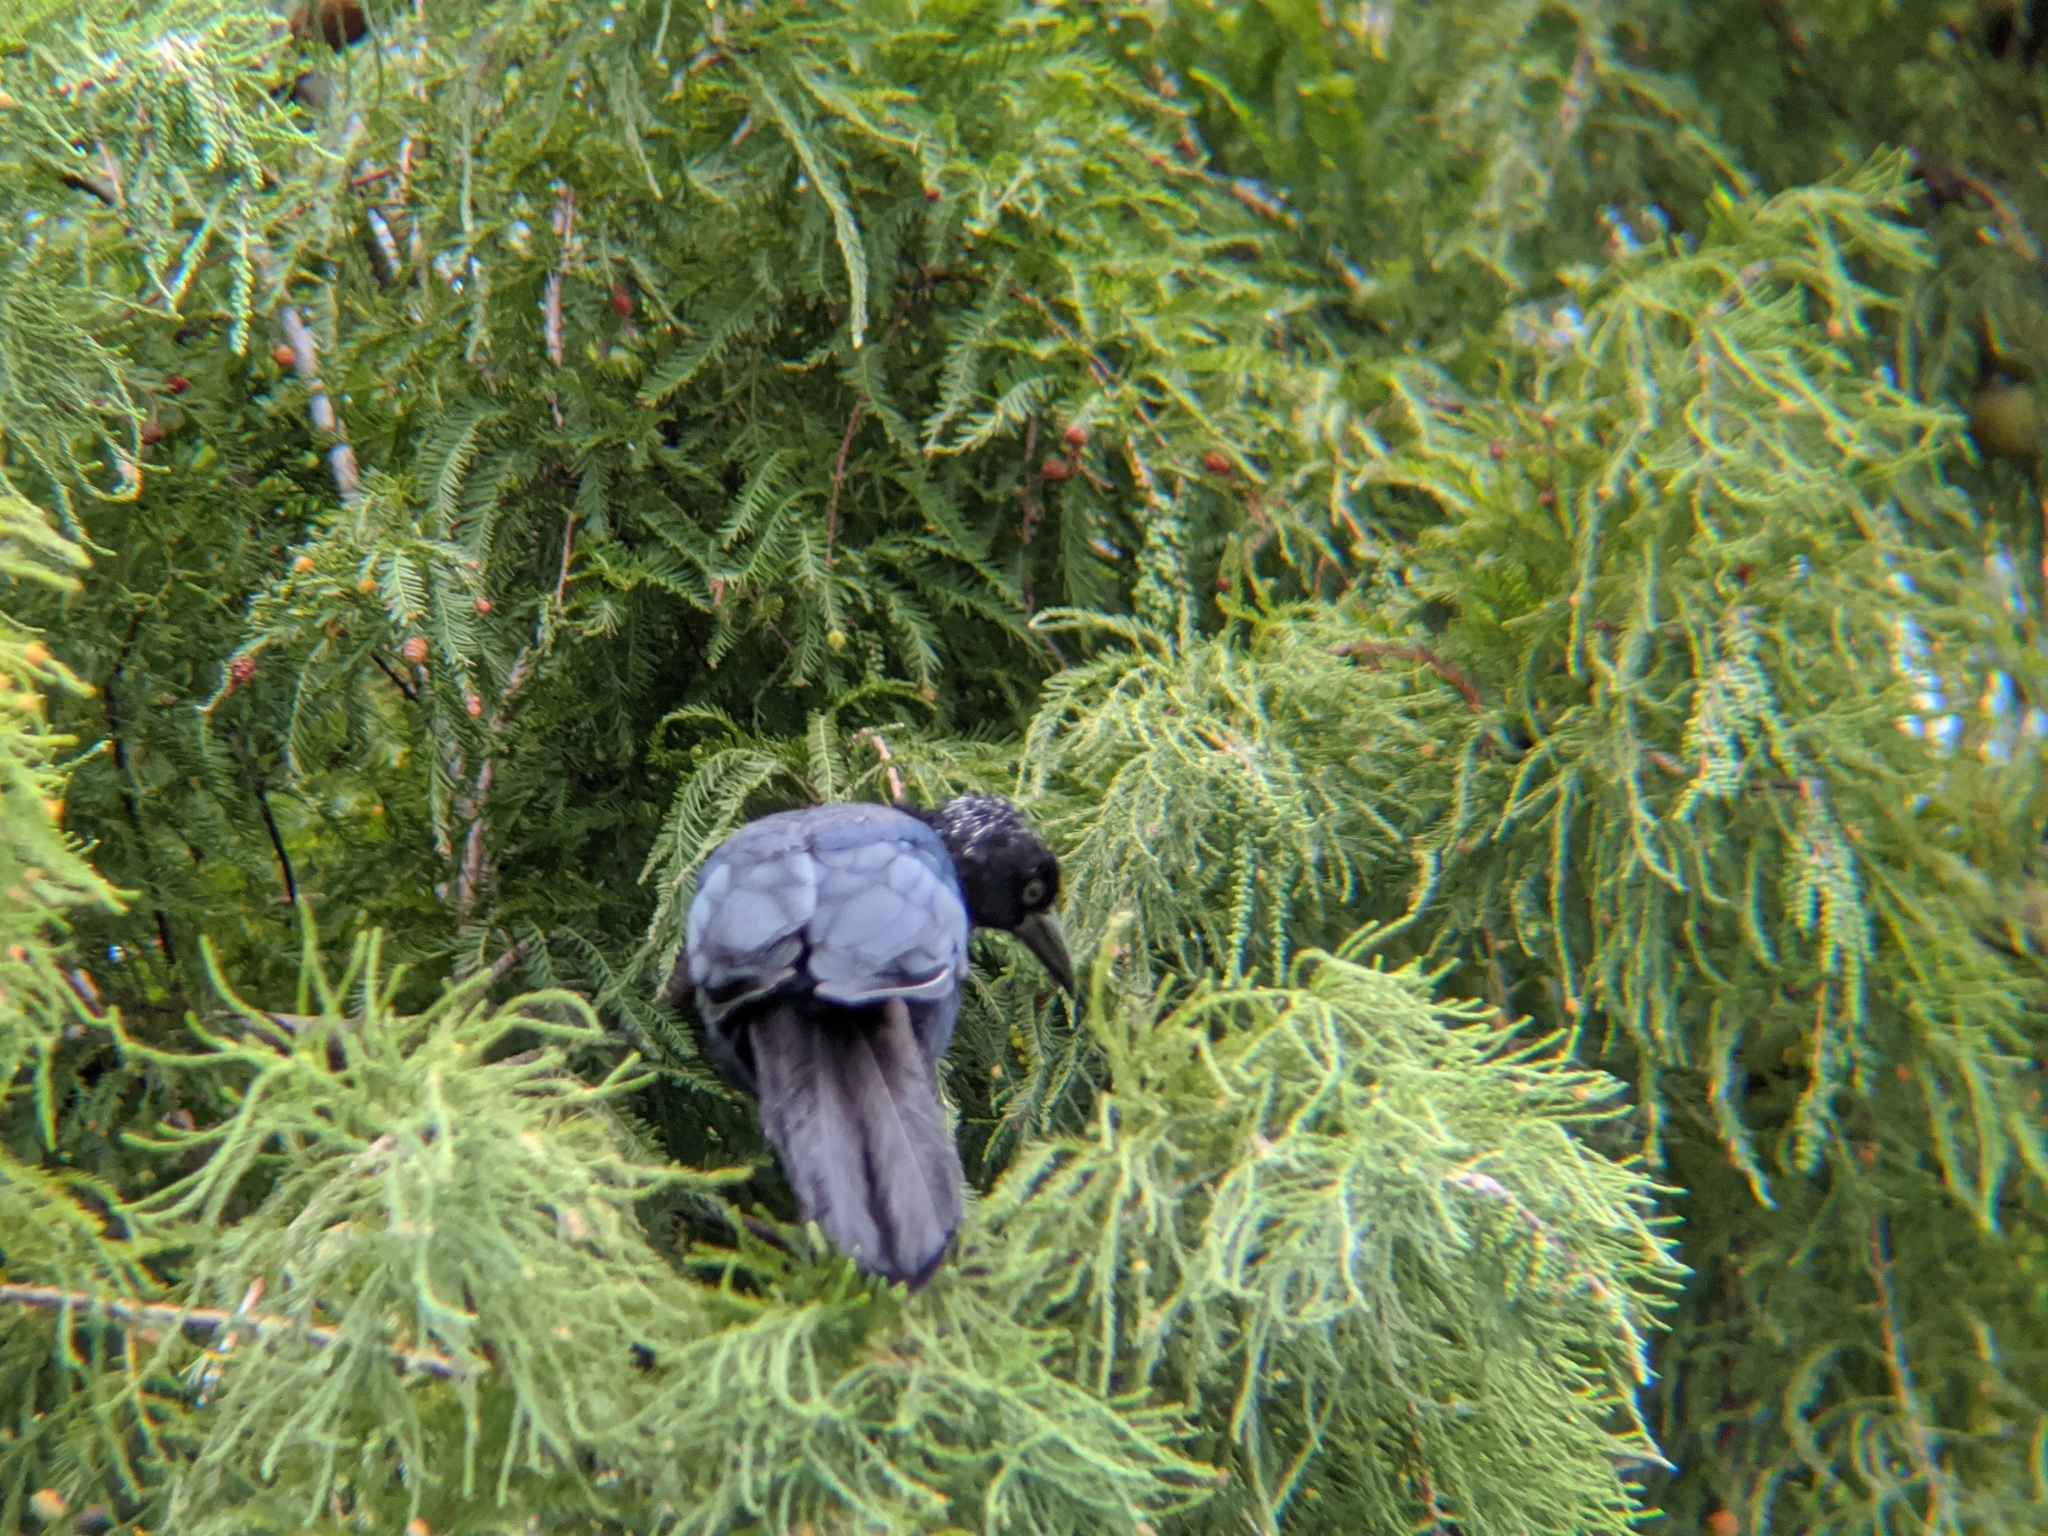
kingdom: Animalia
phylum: Chordata
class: Aves
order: Passeriformes
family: Icteridae
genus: Quiscalus
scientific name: Quiscalus major
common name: Boat-tailed grackle
